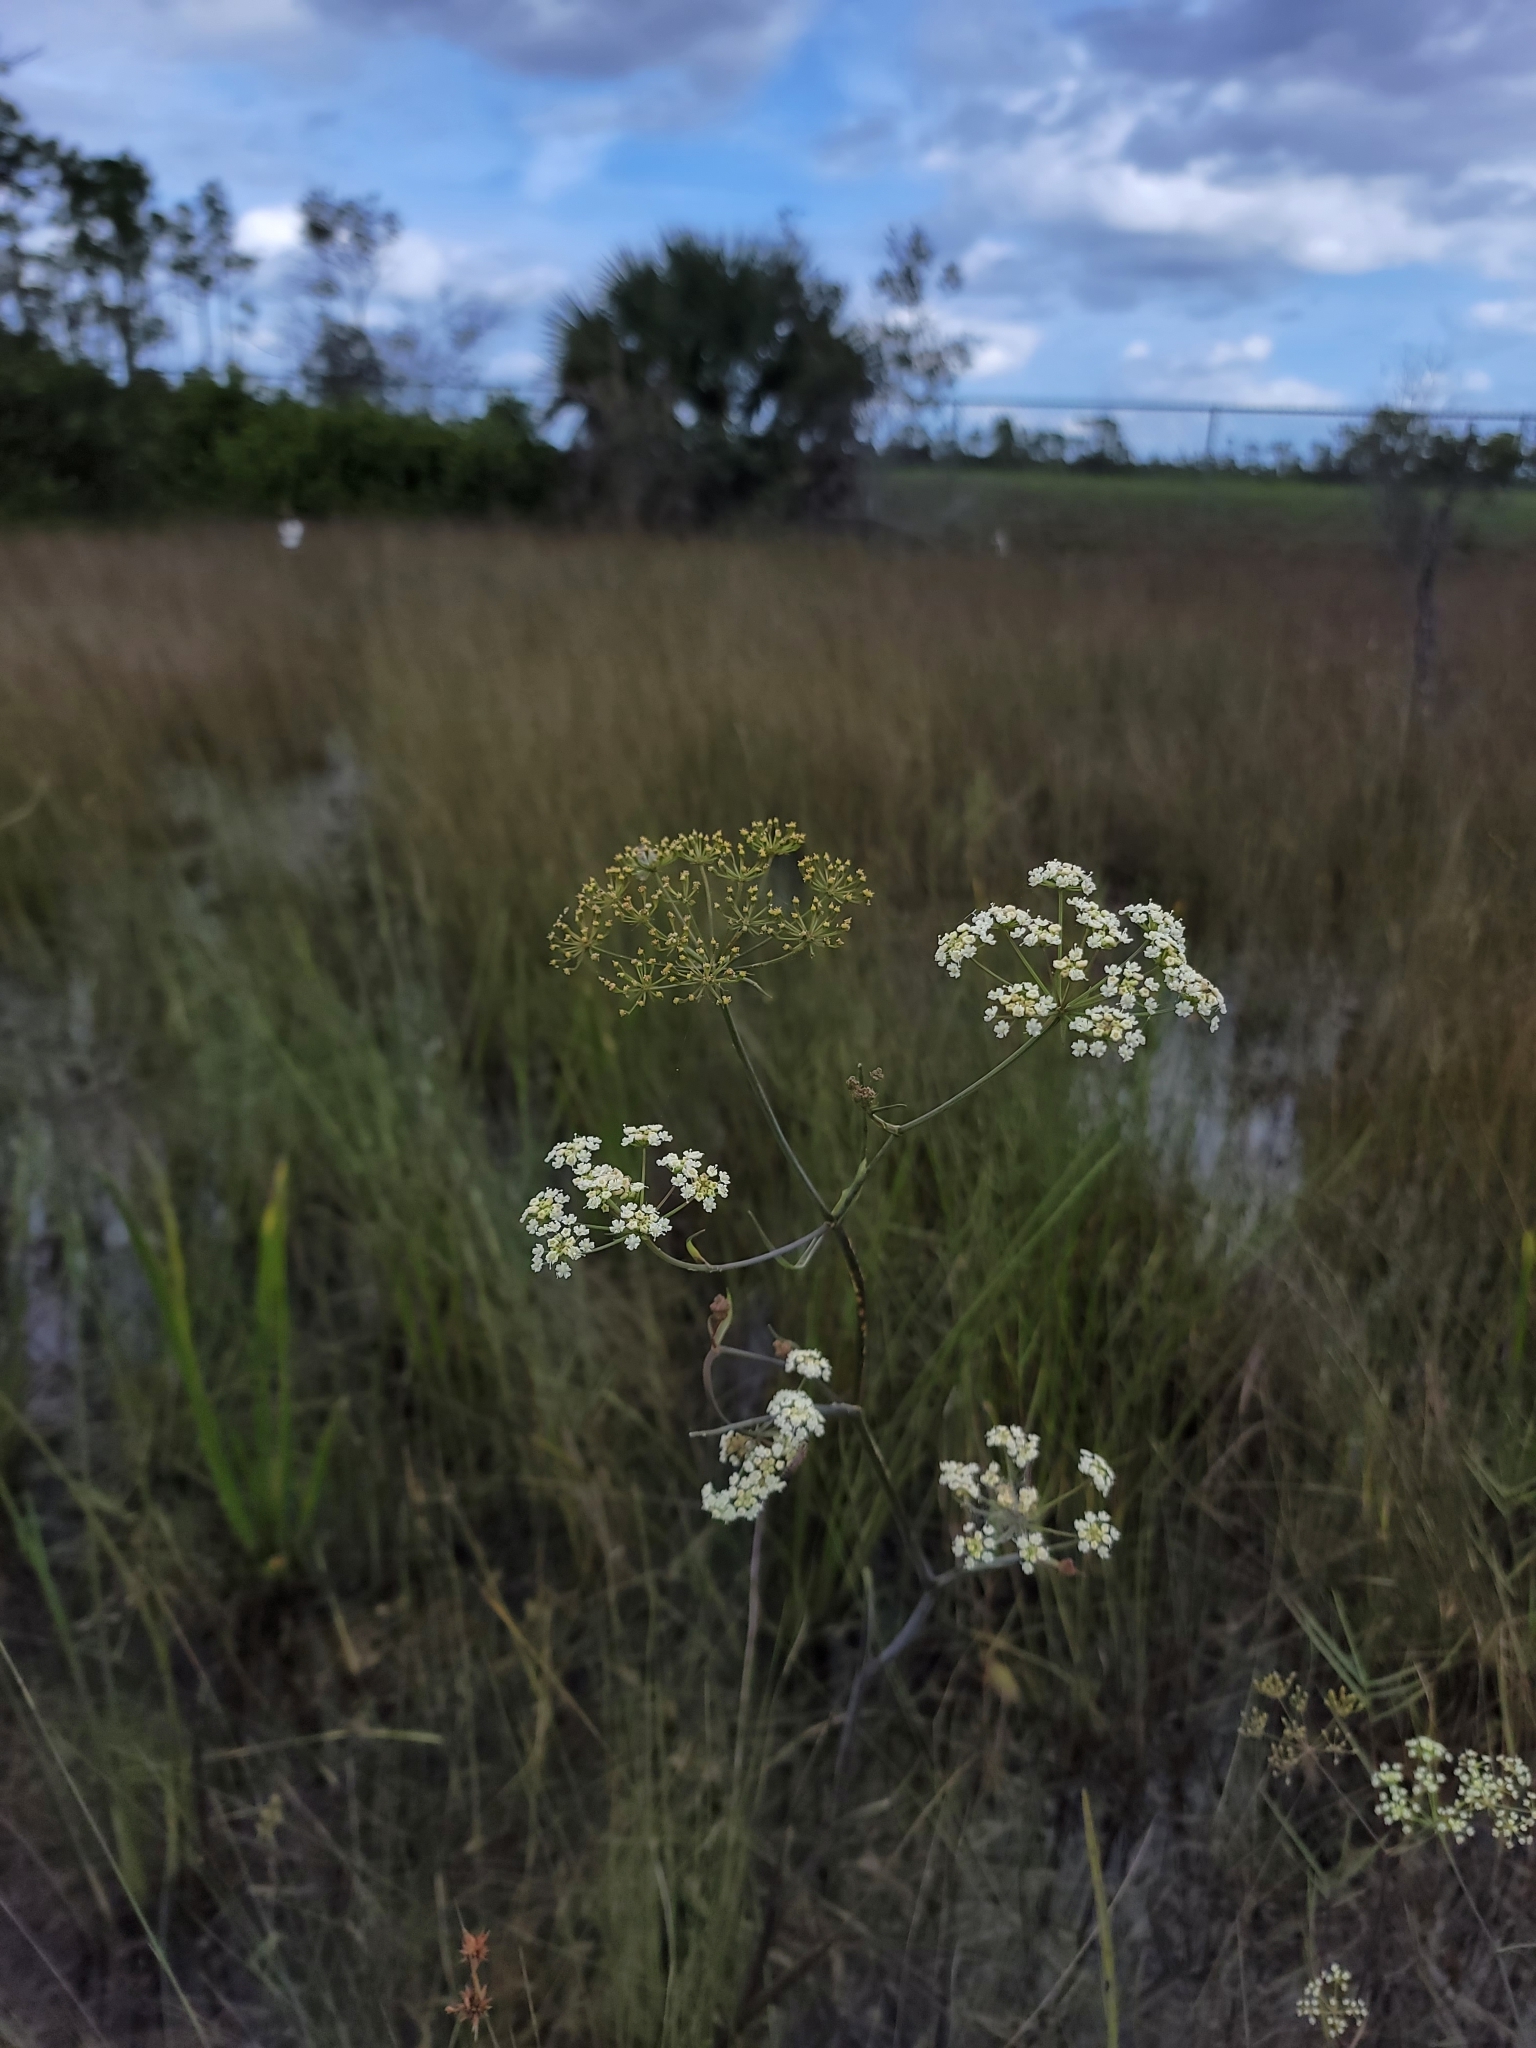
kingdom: Plantae
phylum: Tracheophyta
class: Magnoliopsida
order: Apiales
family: Apiaceae
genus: Tiedemannia
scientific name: Tiedemannia filiformis
